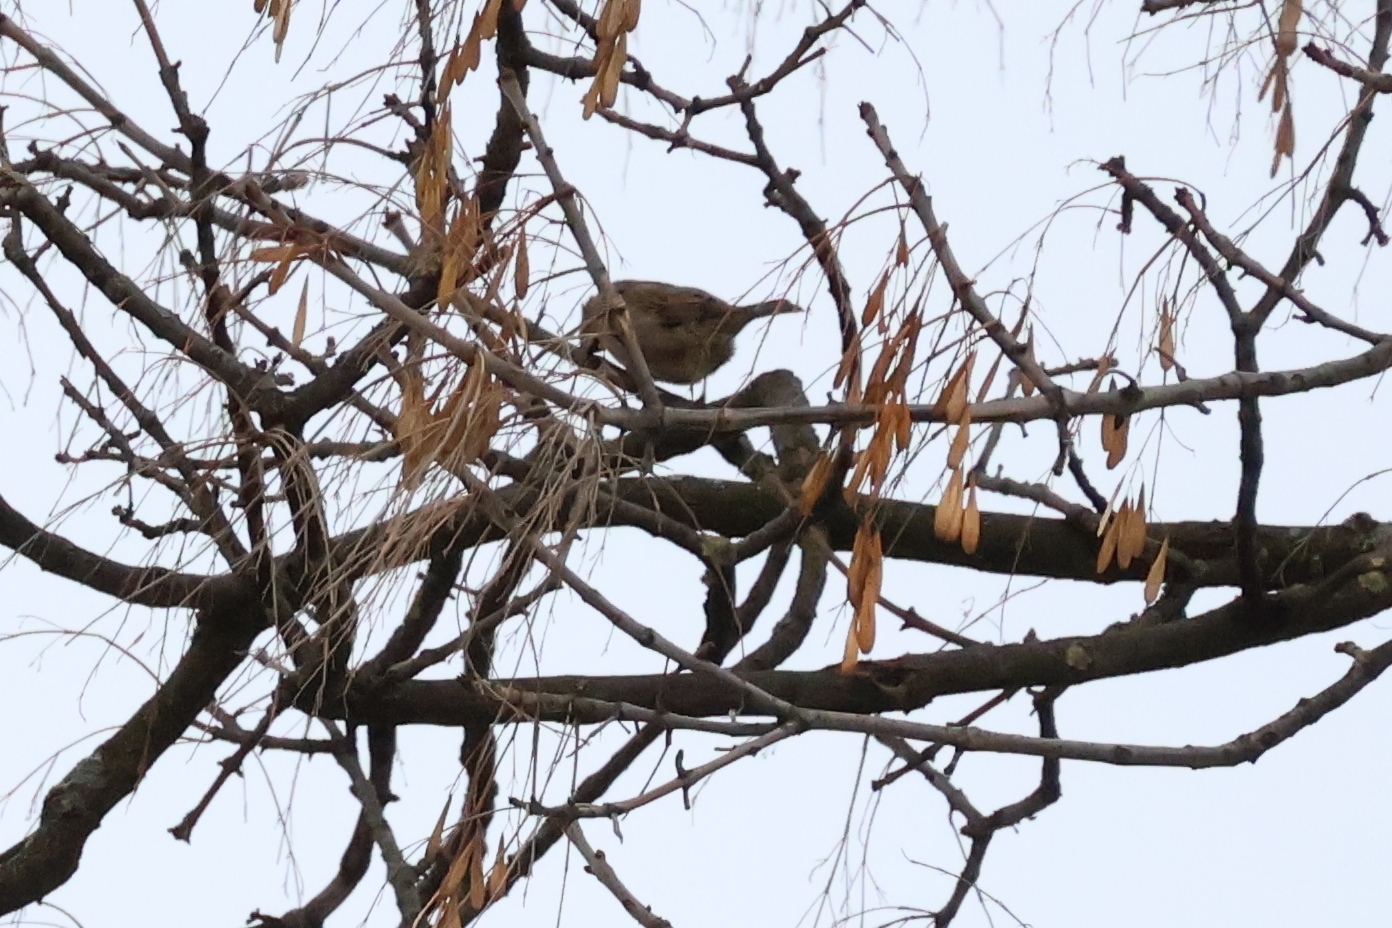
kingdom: Animalia
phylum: Chordata
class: Aves
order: Passeriformes
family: Passeridae
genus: Passer
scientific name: Passer domesticus
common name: House sparrow
